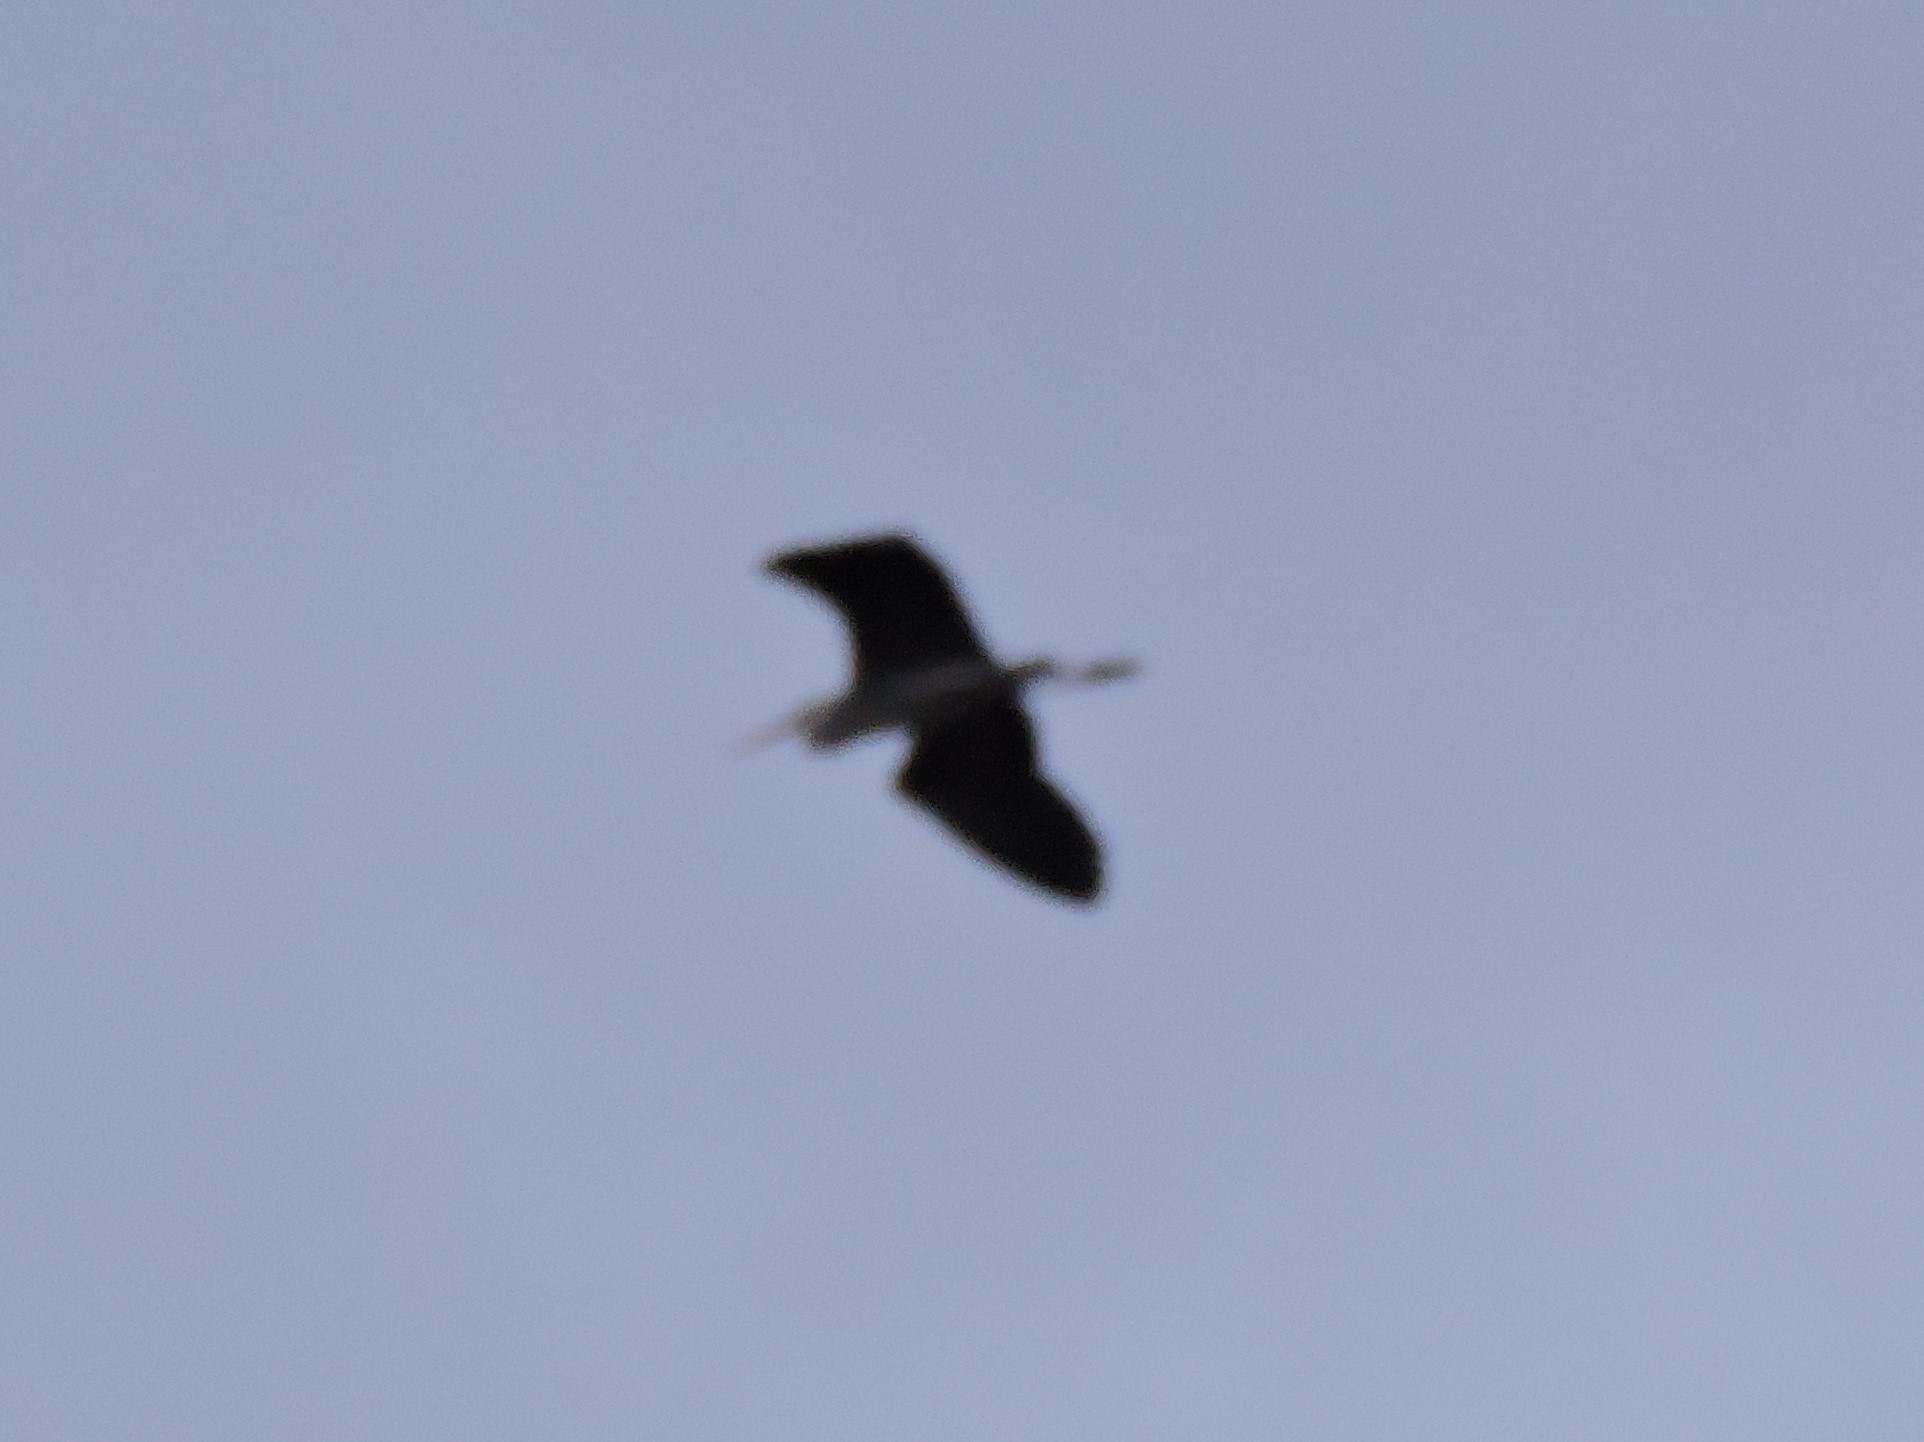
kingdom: Animalia
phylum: Chordata
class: Aves
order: Pelecaniformes
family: Ardeidae
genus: Ardea
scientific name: Ardea cinerea
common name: Grey heron
